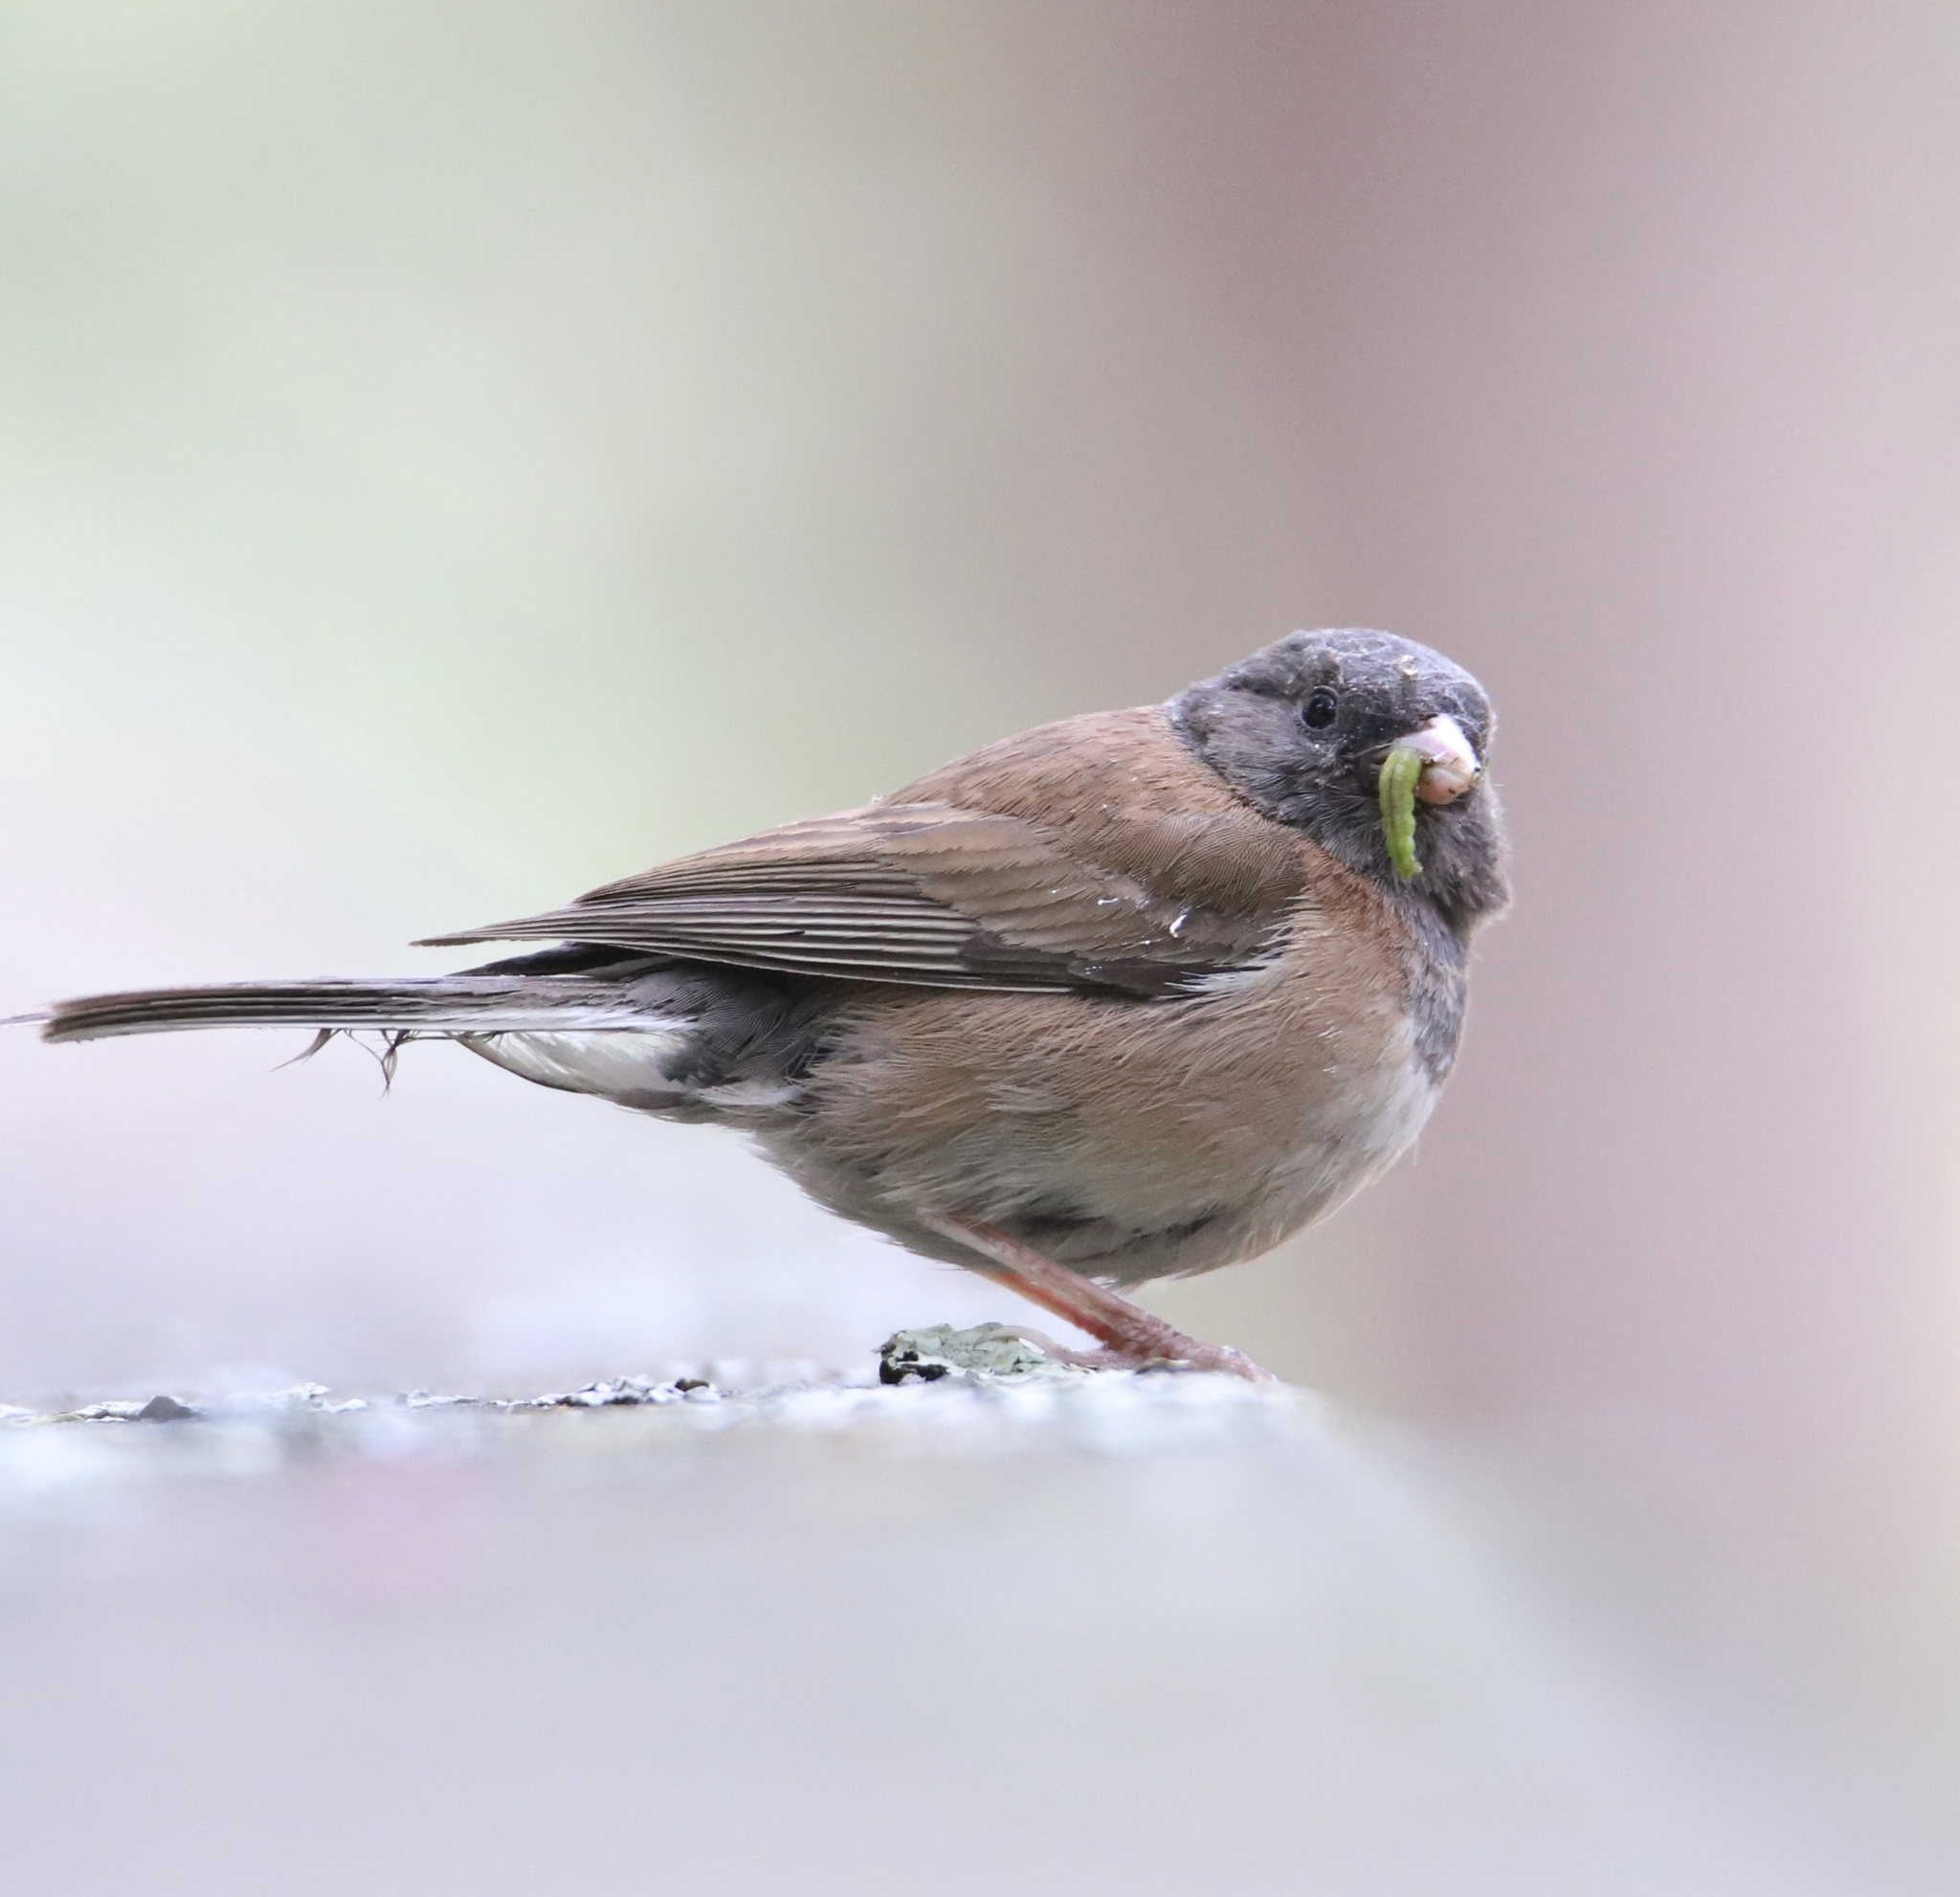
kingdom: Animalia
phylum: Chordata
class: Aves
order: Passeriformes
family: Passerellidae
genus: Junco
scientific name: Junco hyemalis
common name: Dark-eyed junco
